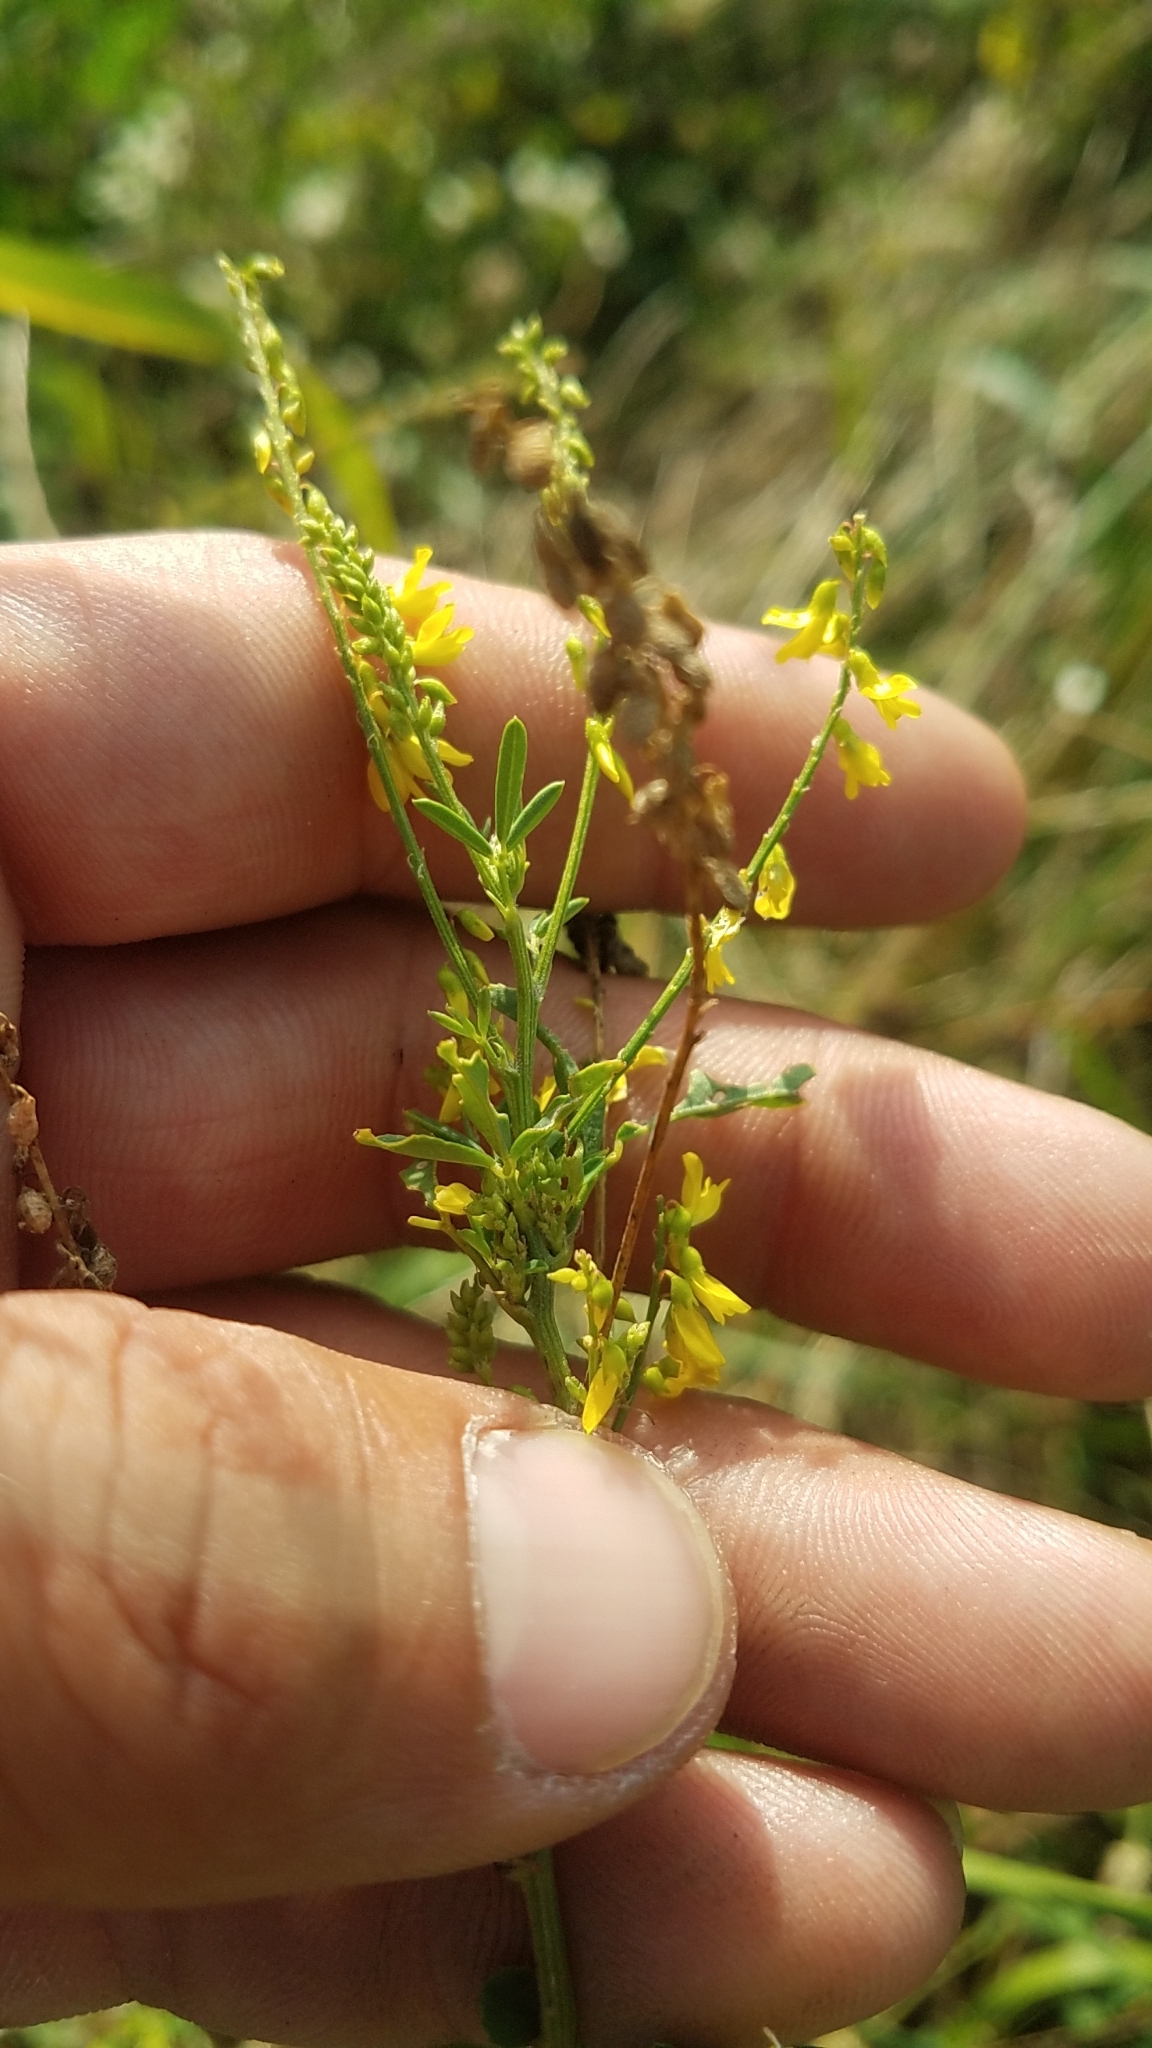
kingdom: Plantae
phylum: Tracheophyta
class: Magnoliopsida
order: Fabales
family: Fabaceae
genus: Melilotus
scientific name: Melilotus officinalis
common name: Sweetclover
